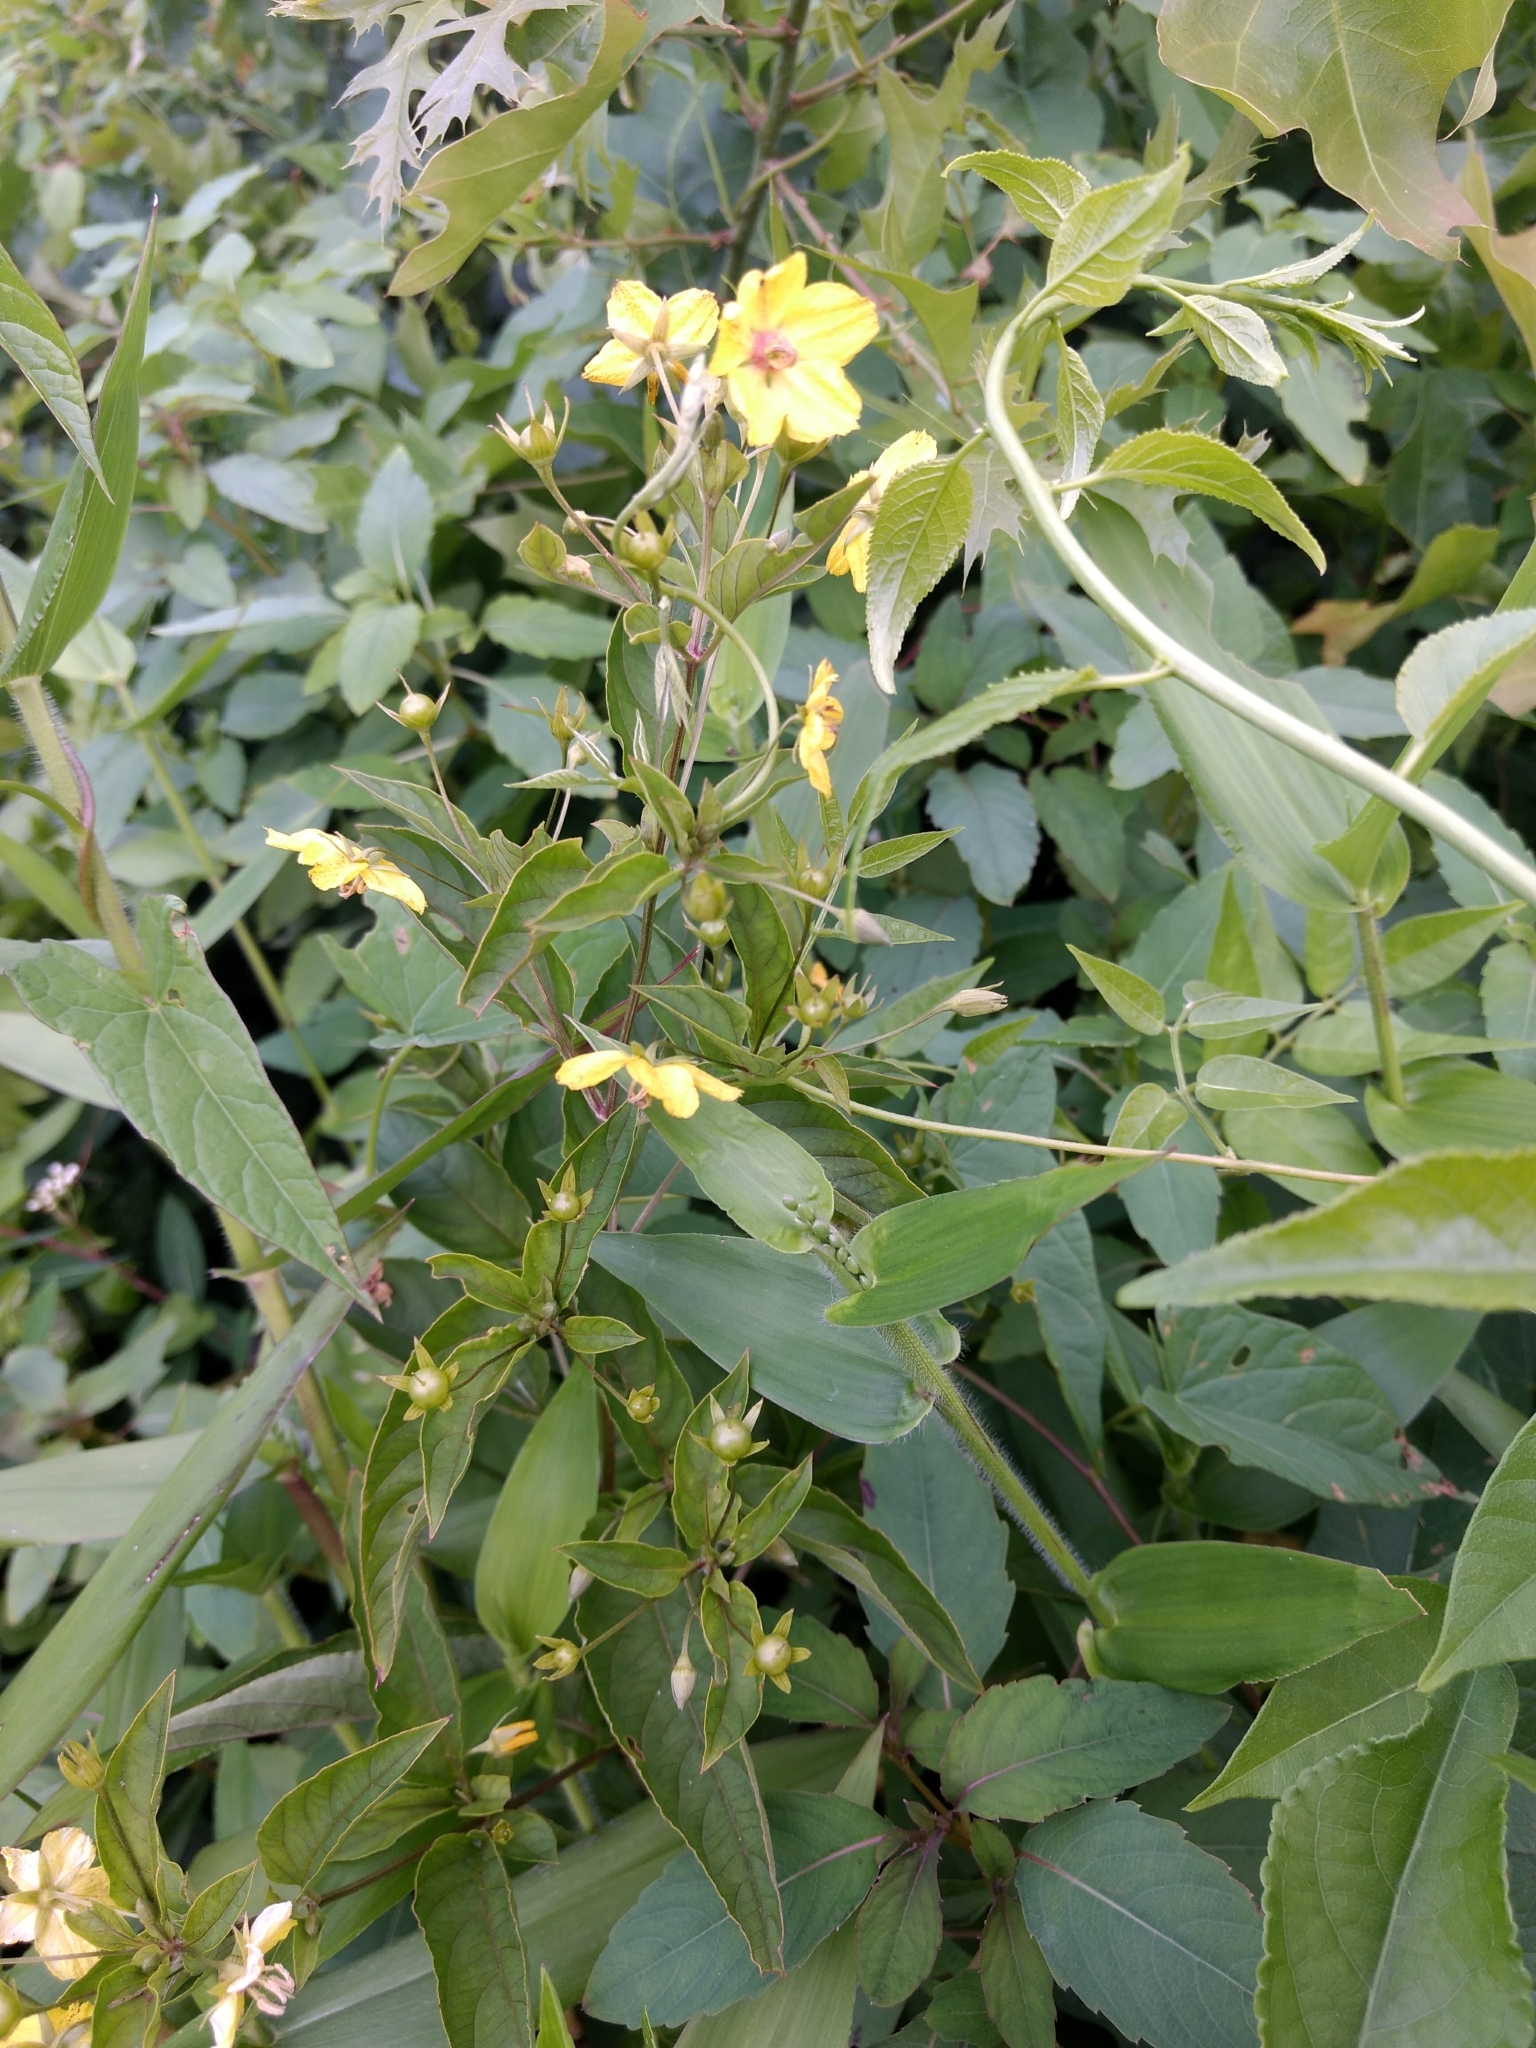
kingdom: Plantae
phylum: Tracheophyta
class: Magnoliopsida
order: Ericales
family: Primulaceae
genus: Lysimachia
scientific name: Lysimachia ciliata
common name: Fringed loosestrife
